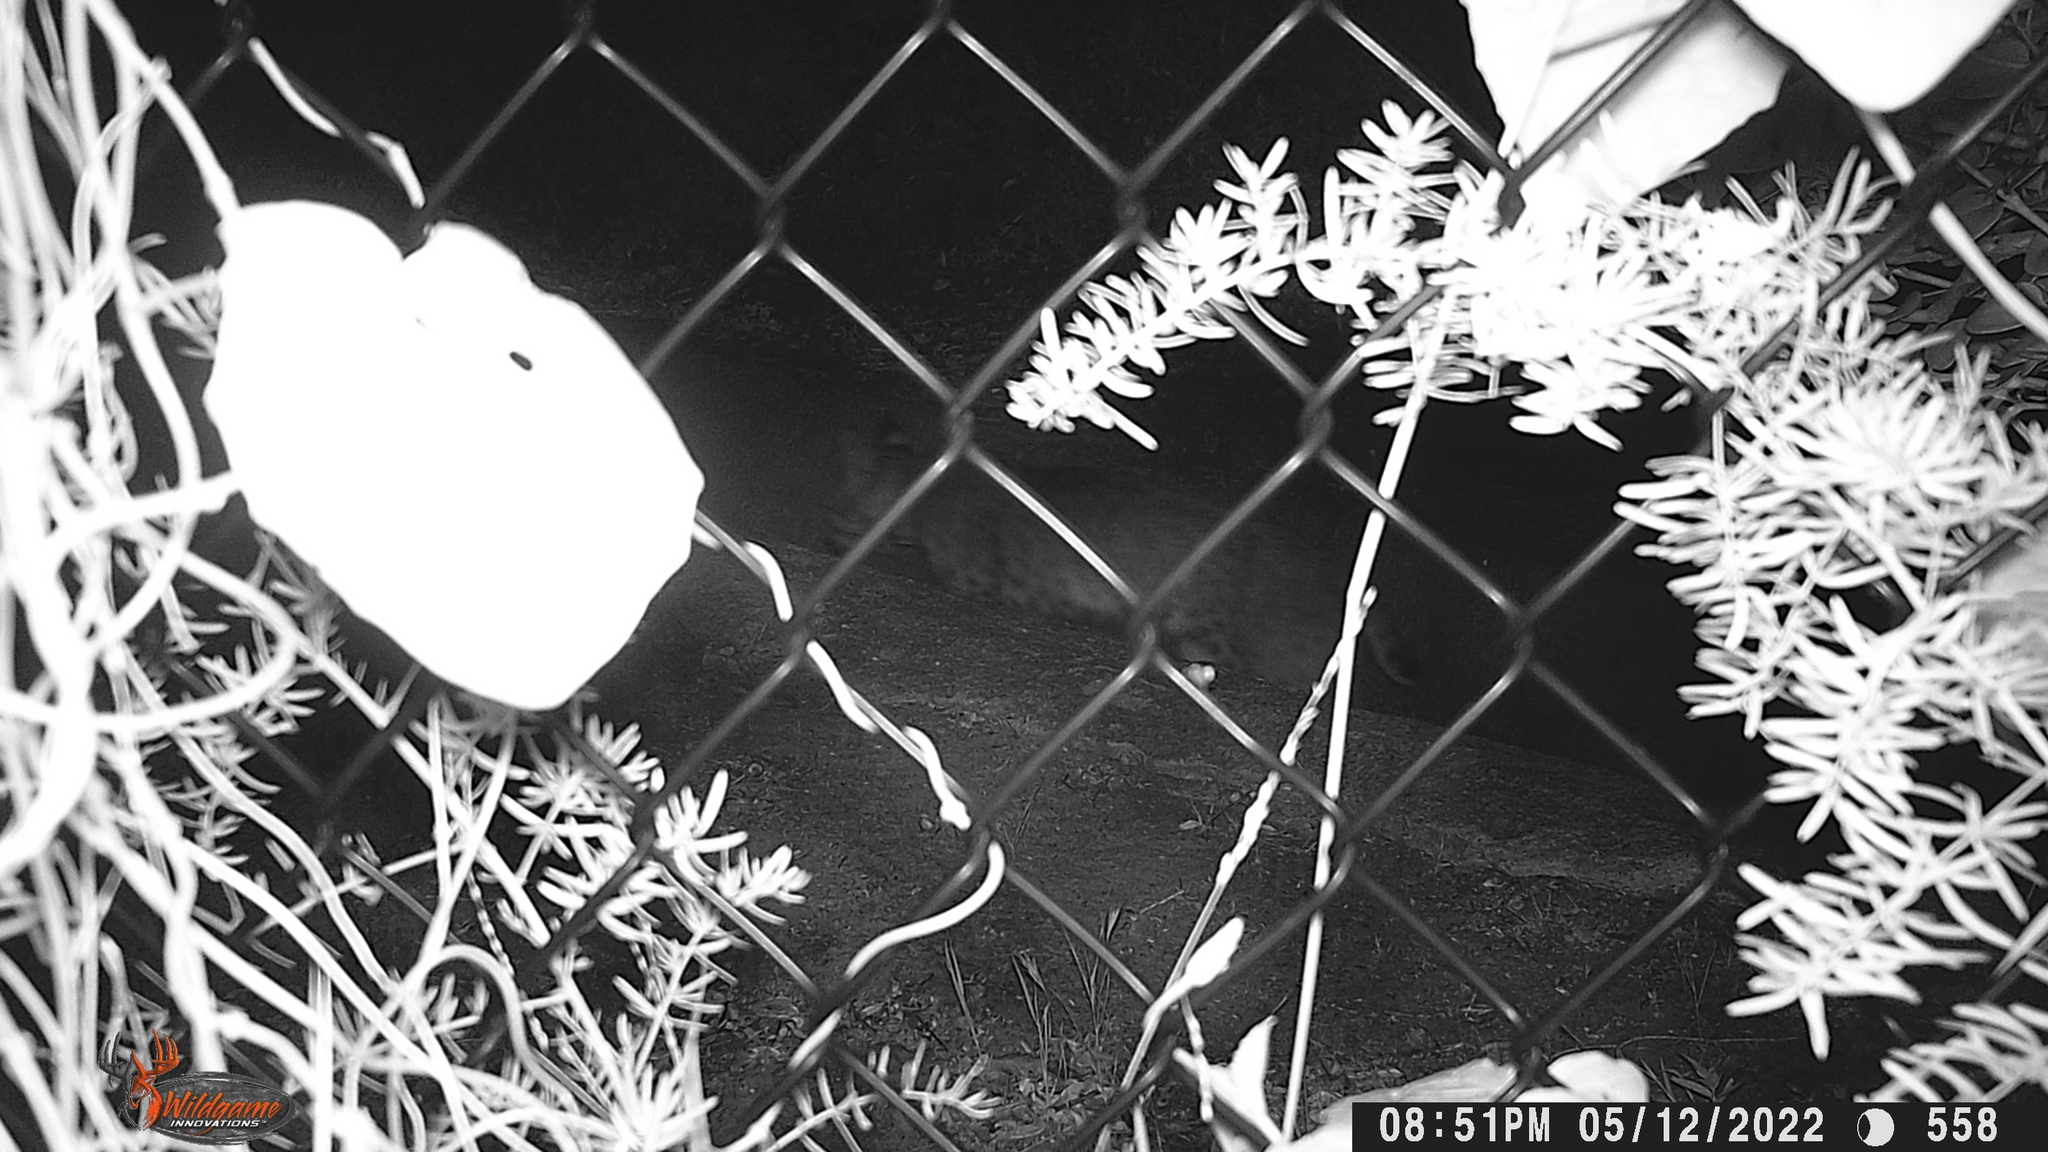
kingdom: Animalia
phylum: Chordata
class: Mammalia
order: Carnivora
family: Felidae
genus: Lynx
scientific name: Lynx rufus
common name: Bobcat
